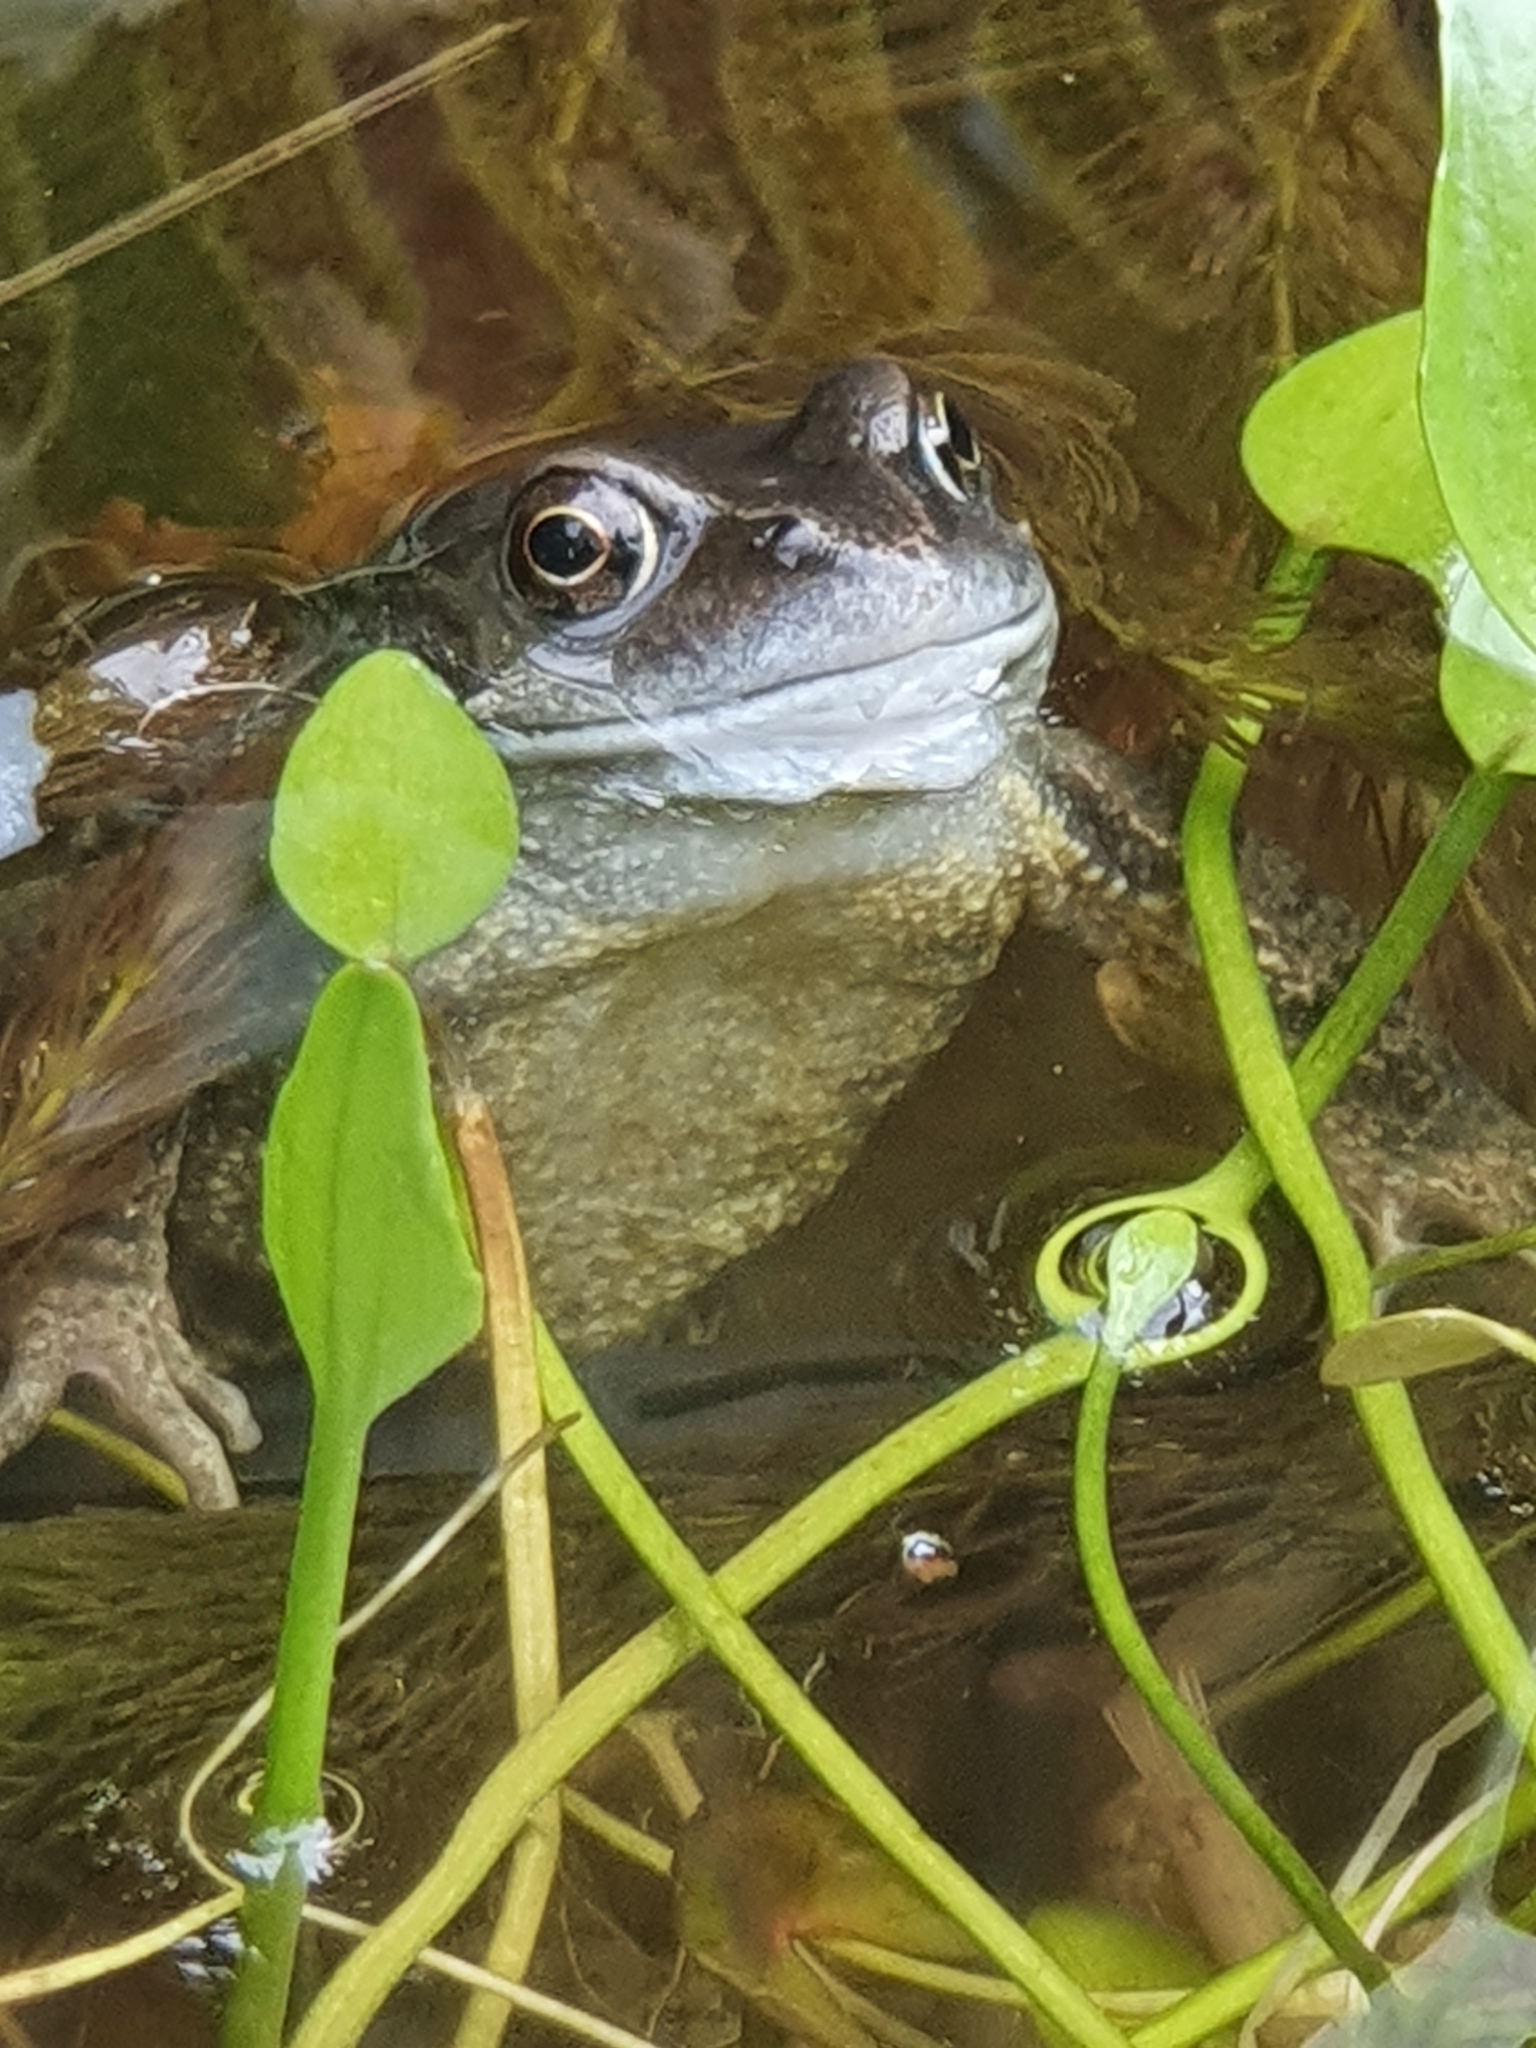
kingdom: Animalia
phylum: Chordata
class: Amphibia
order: Anura
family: Ranidae
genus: Rana
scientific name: Rana temporaria
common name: Common frog
